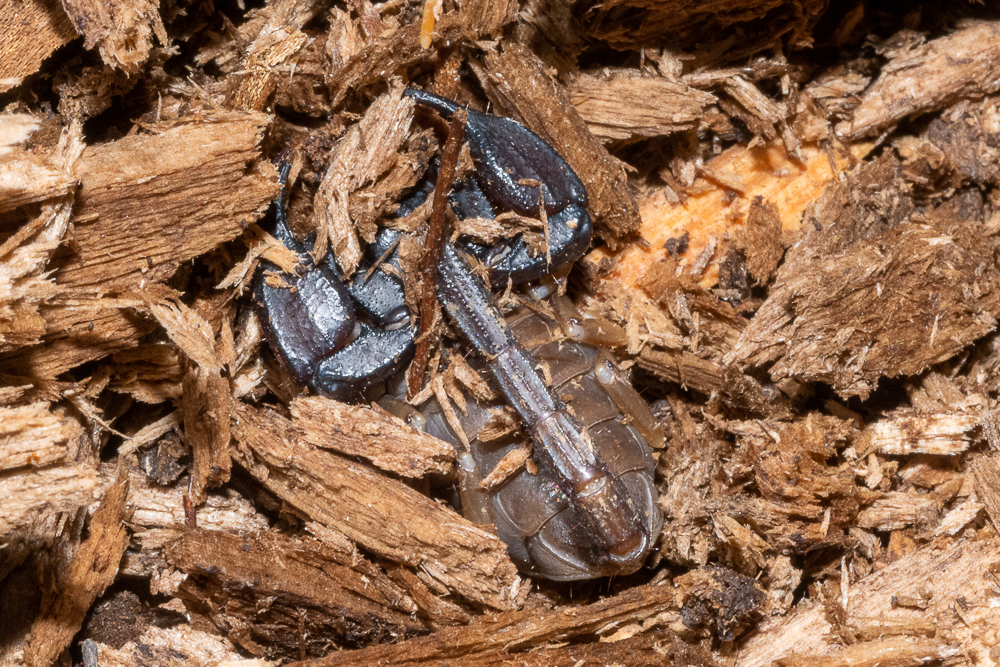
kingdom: Animalia
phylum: Arthropoda
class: Arachnida
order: Scorpiones
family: Chactidae
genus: Uroctonus
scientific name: Uroctonus mordax
